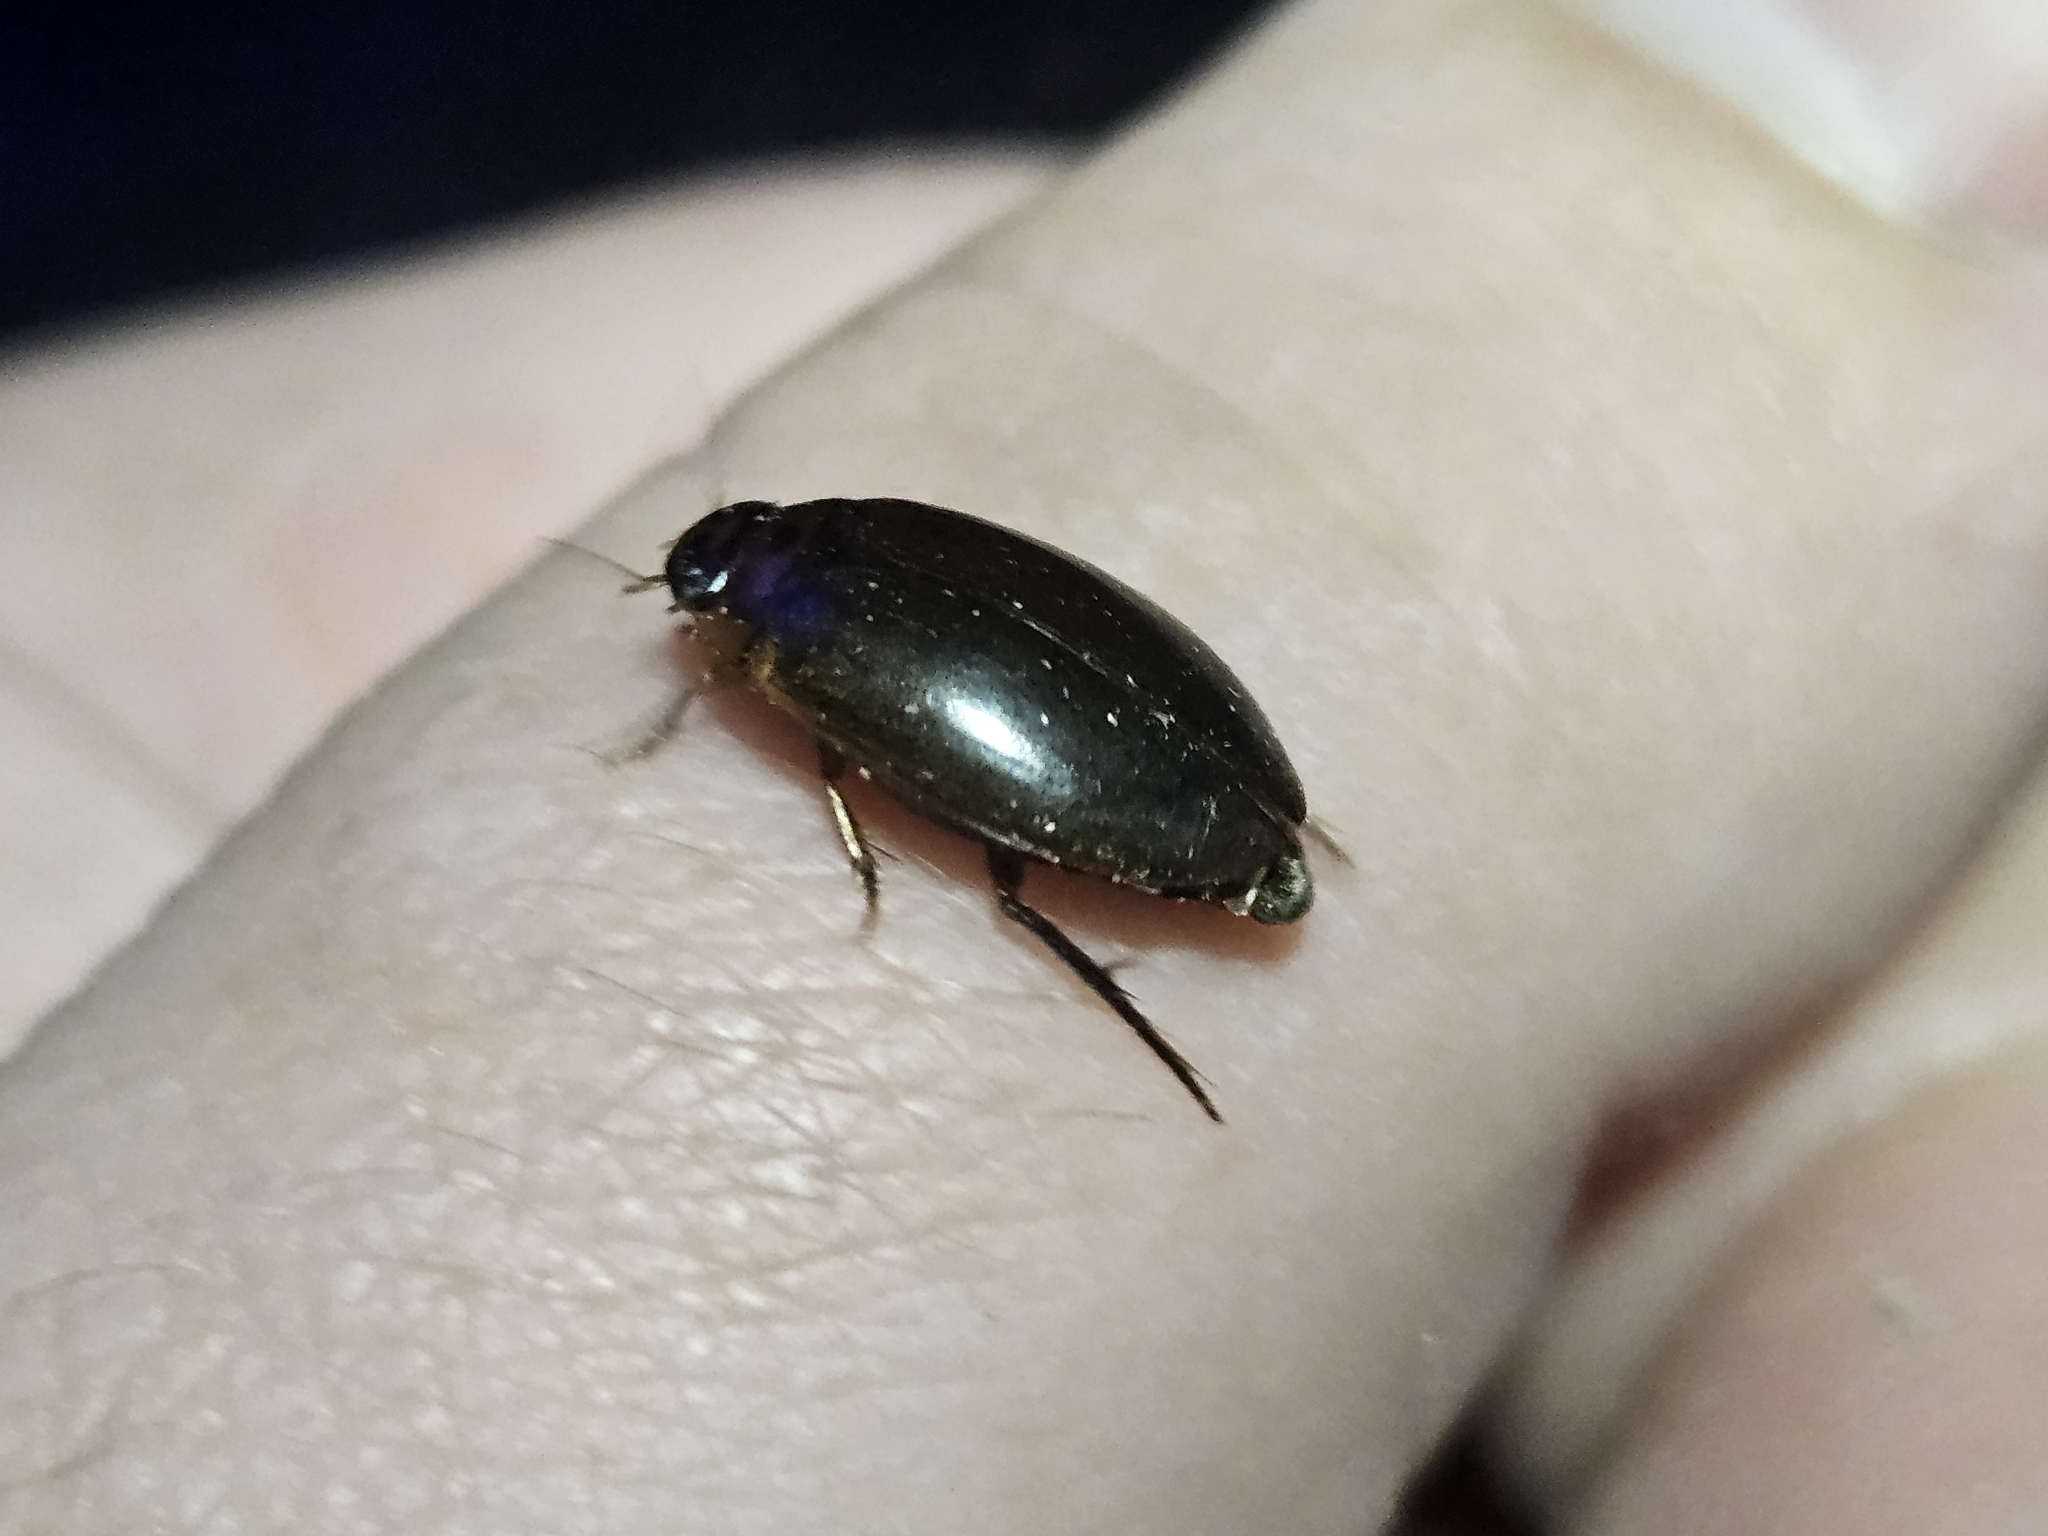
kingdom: Animalia
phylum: Arthropoda
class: Insecta
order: Coleoptera
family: Dytiscidae
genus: Rhantus
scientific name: Rhantus suturalis
